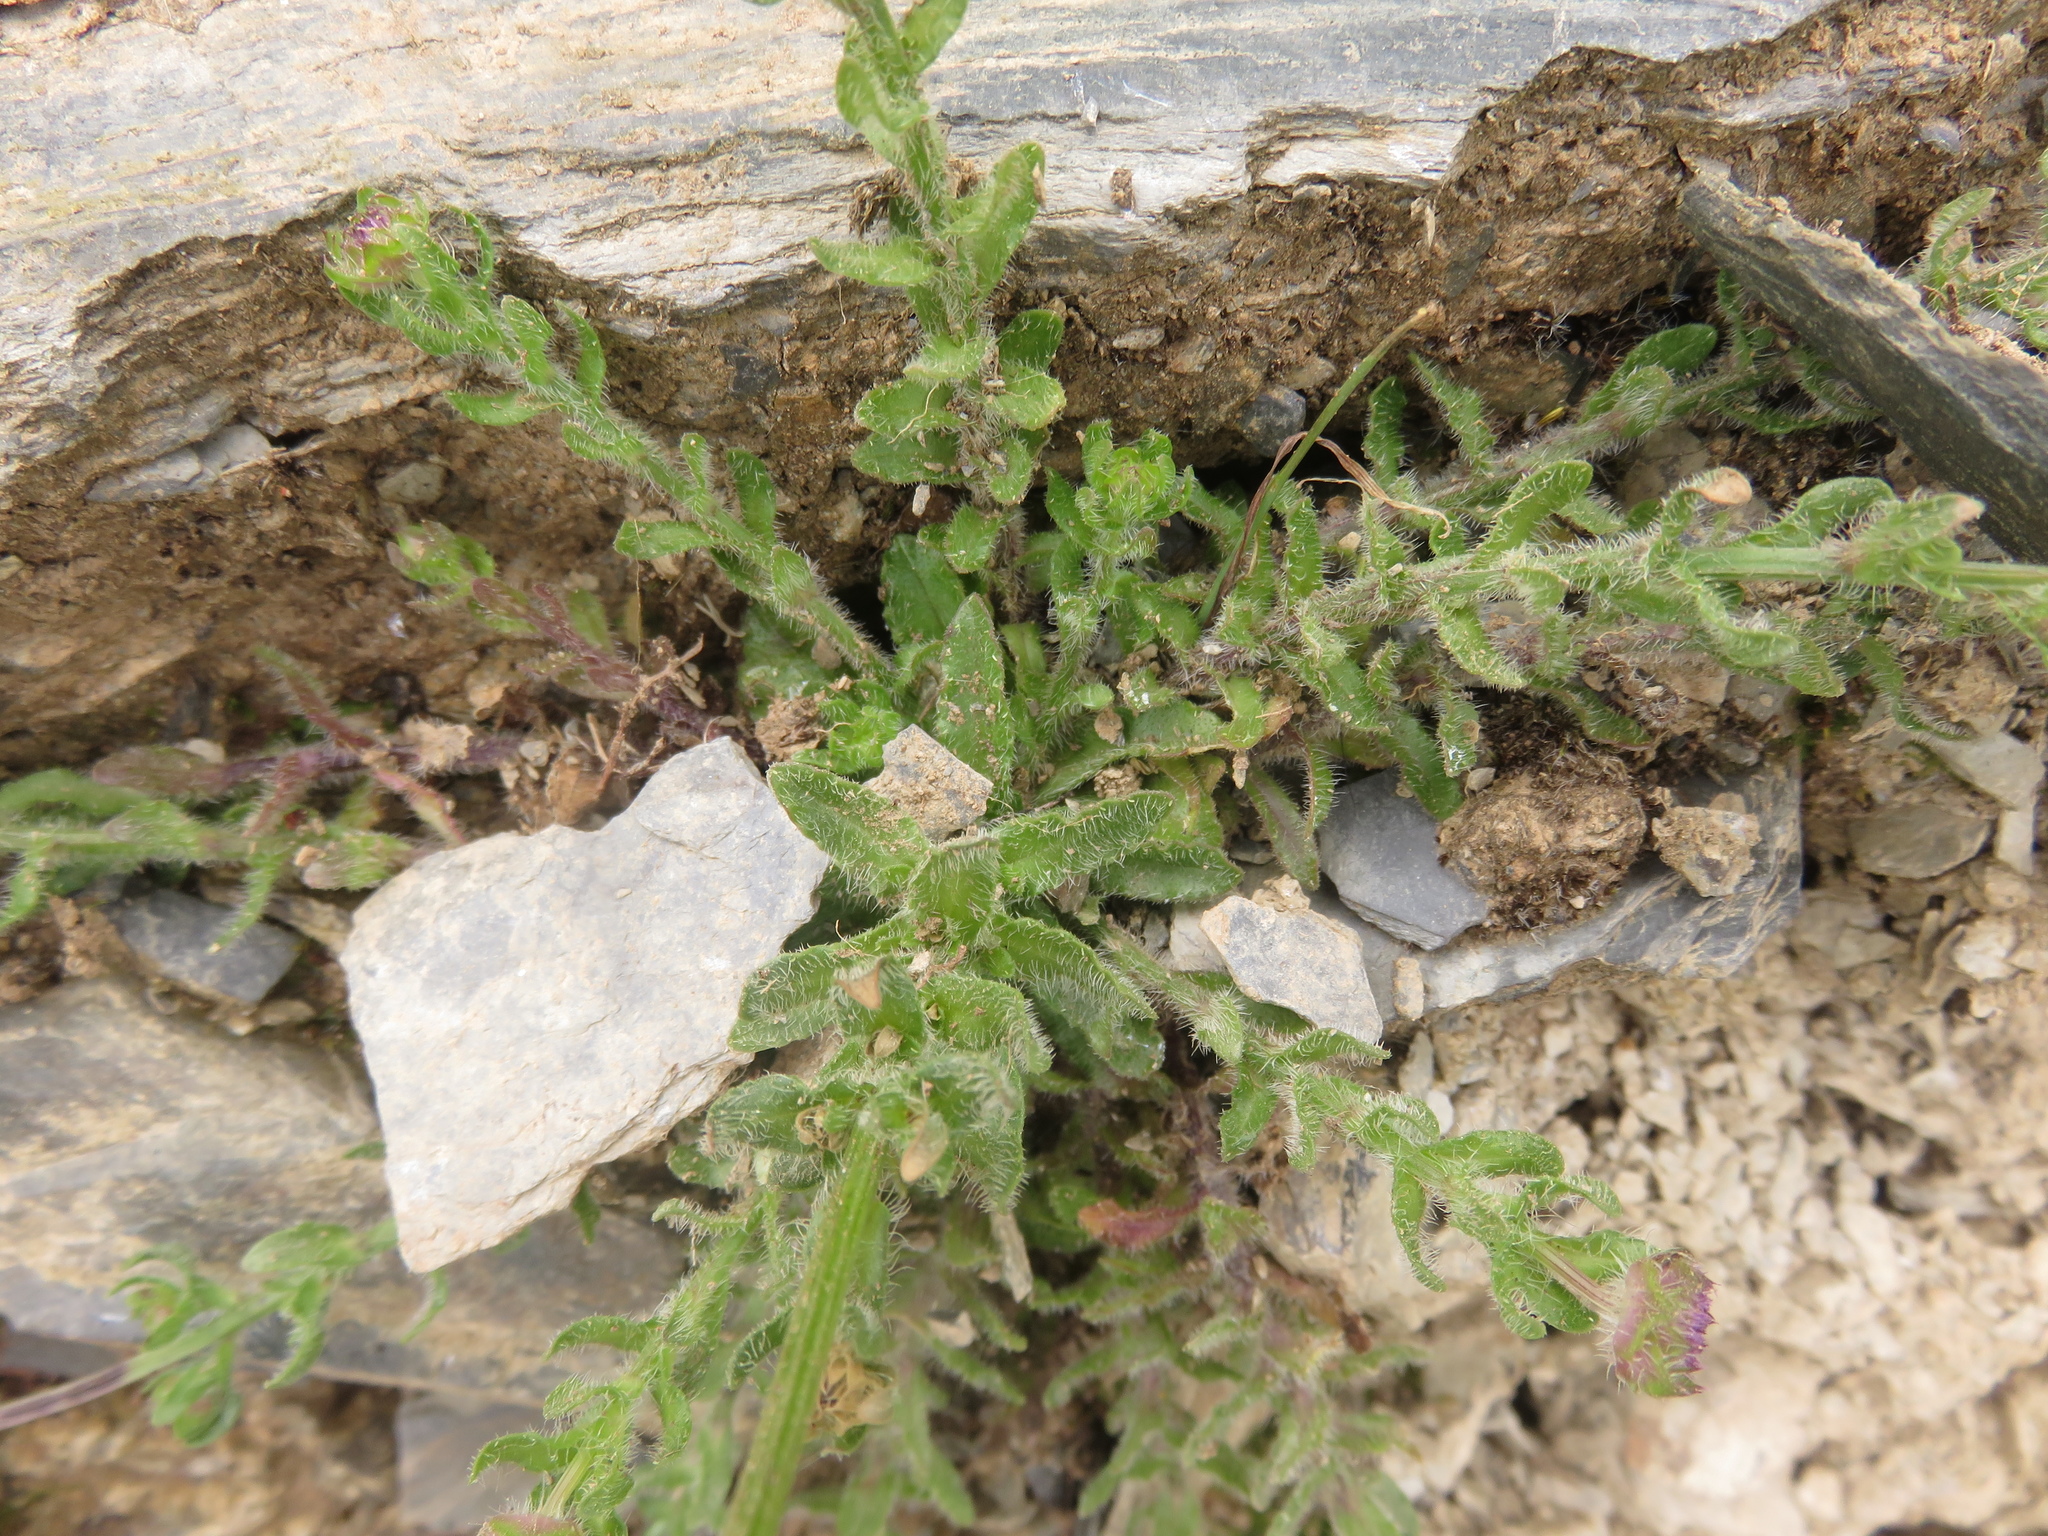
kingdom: Plantae
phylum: Tracheophyta
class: Magnoliopsida
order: Asterales
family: Campanulaceae
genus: Jasione
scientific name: Jasione montana
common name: Sheep's-bit
